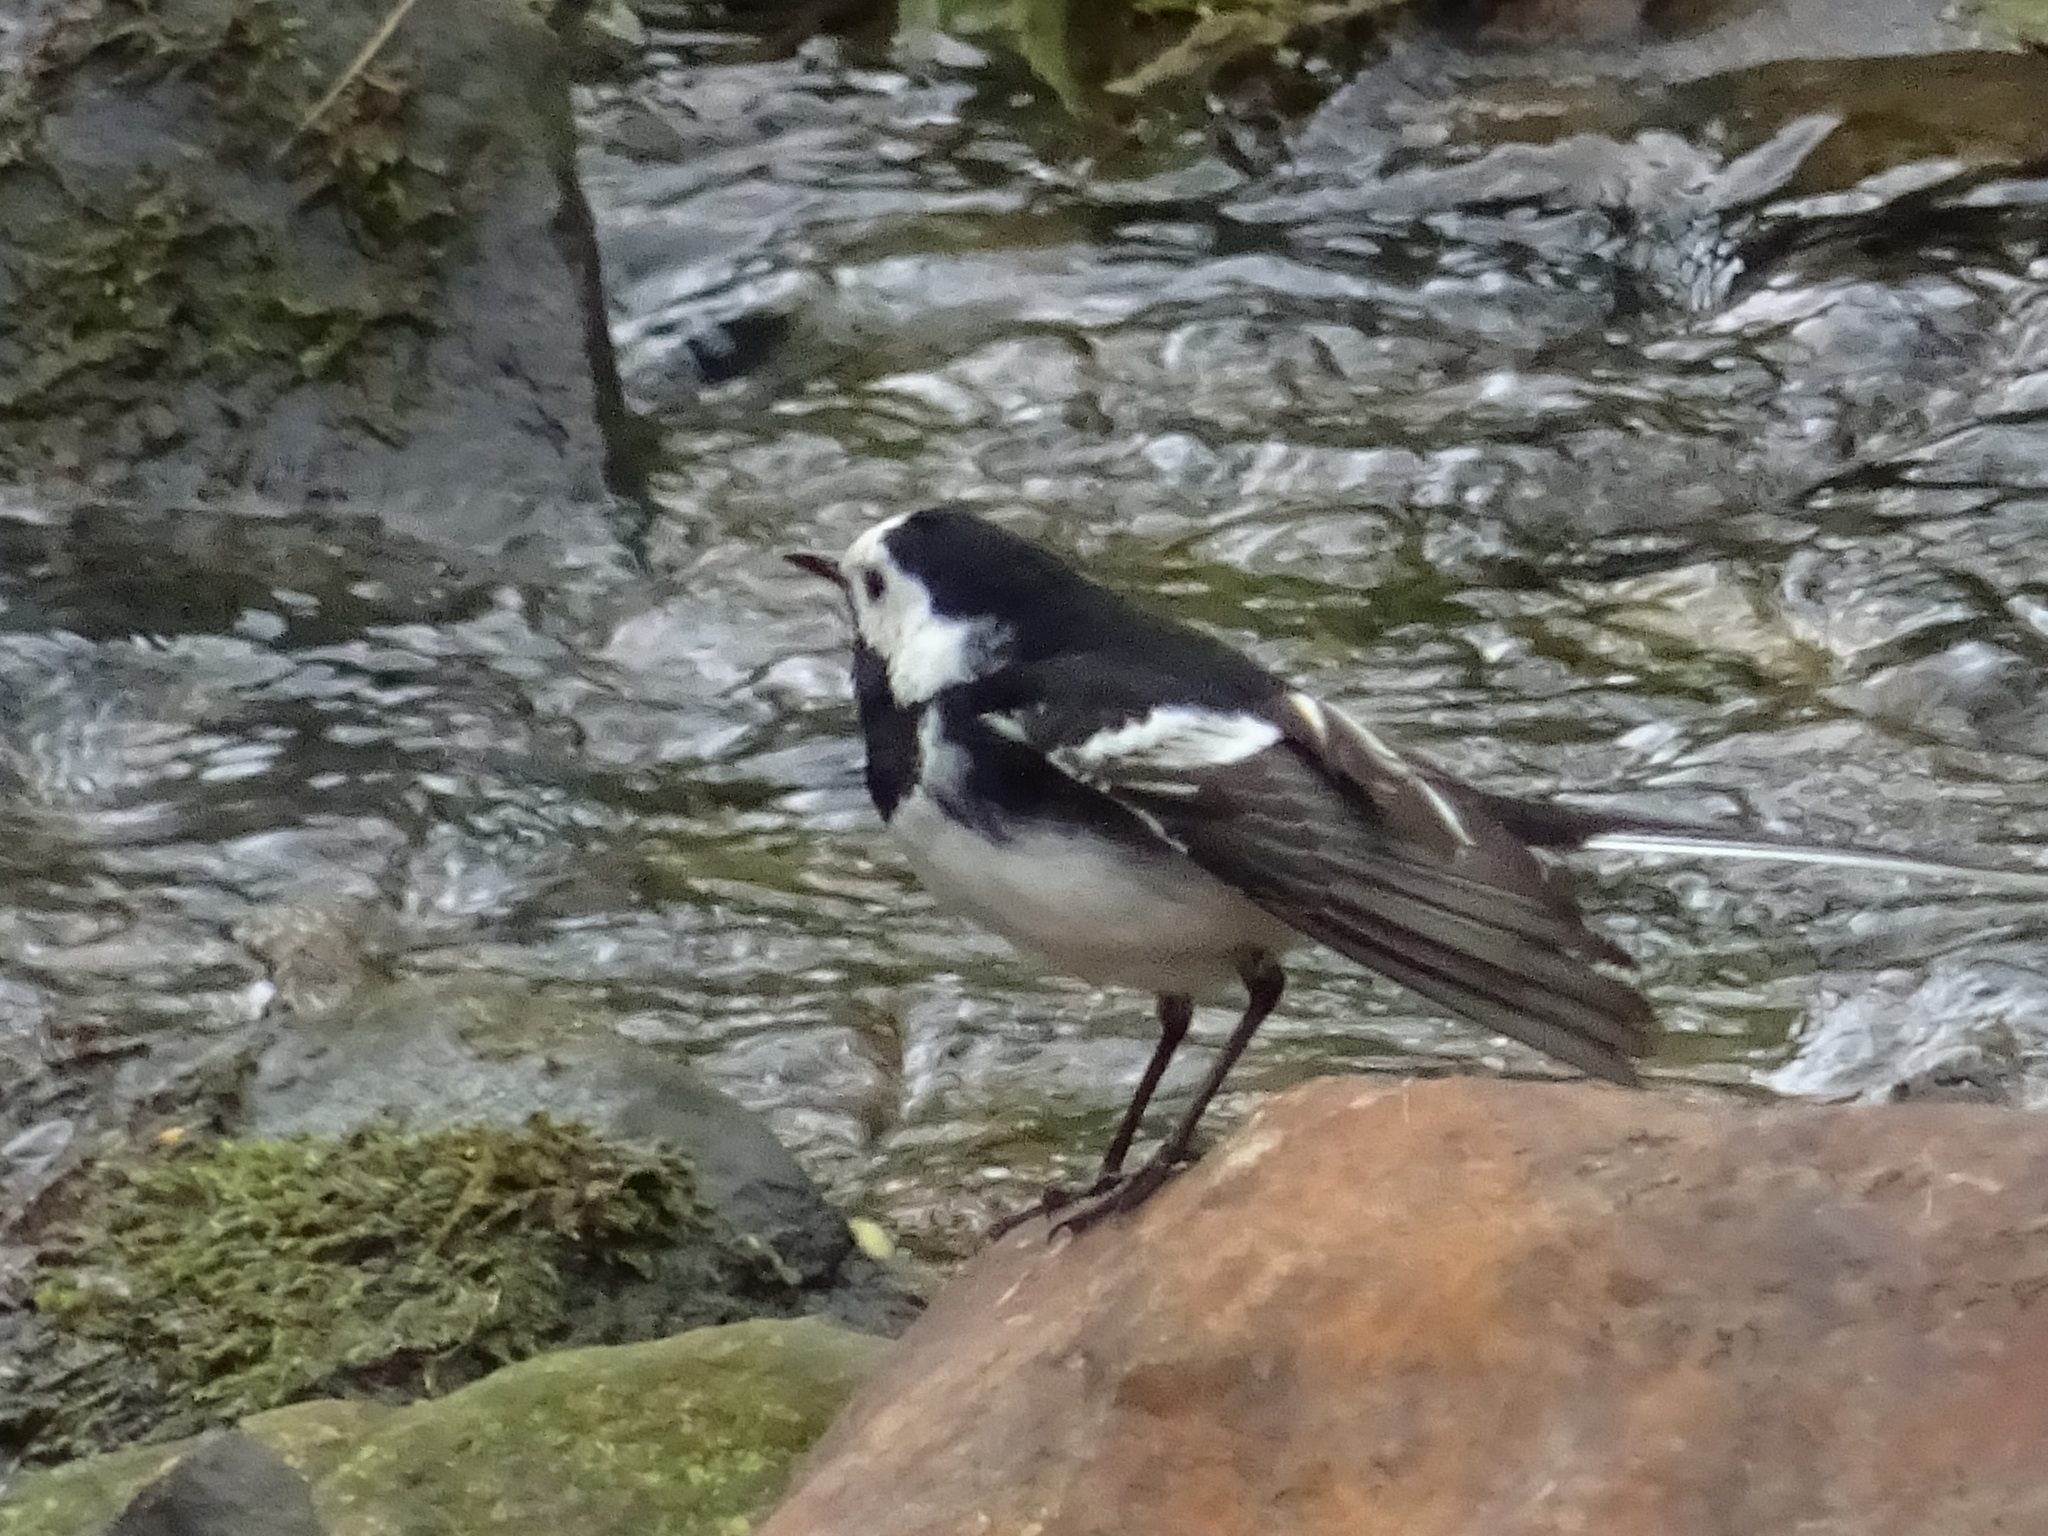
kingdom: Animalia
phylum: Chordata
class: Aves
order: Passeriformes
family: Motacillidae
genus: Motacilla
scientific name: Motacilla alba
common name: White wagtail
